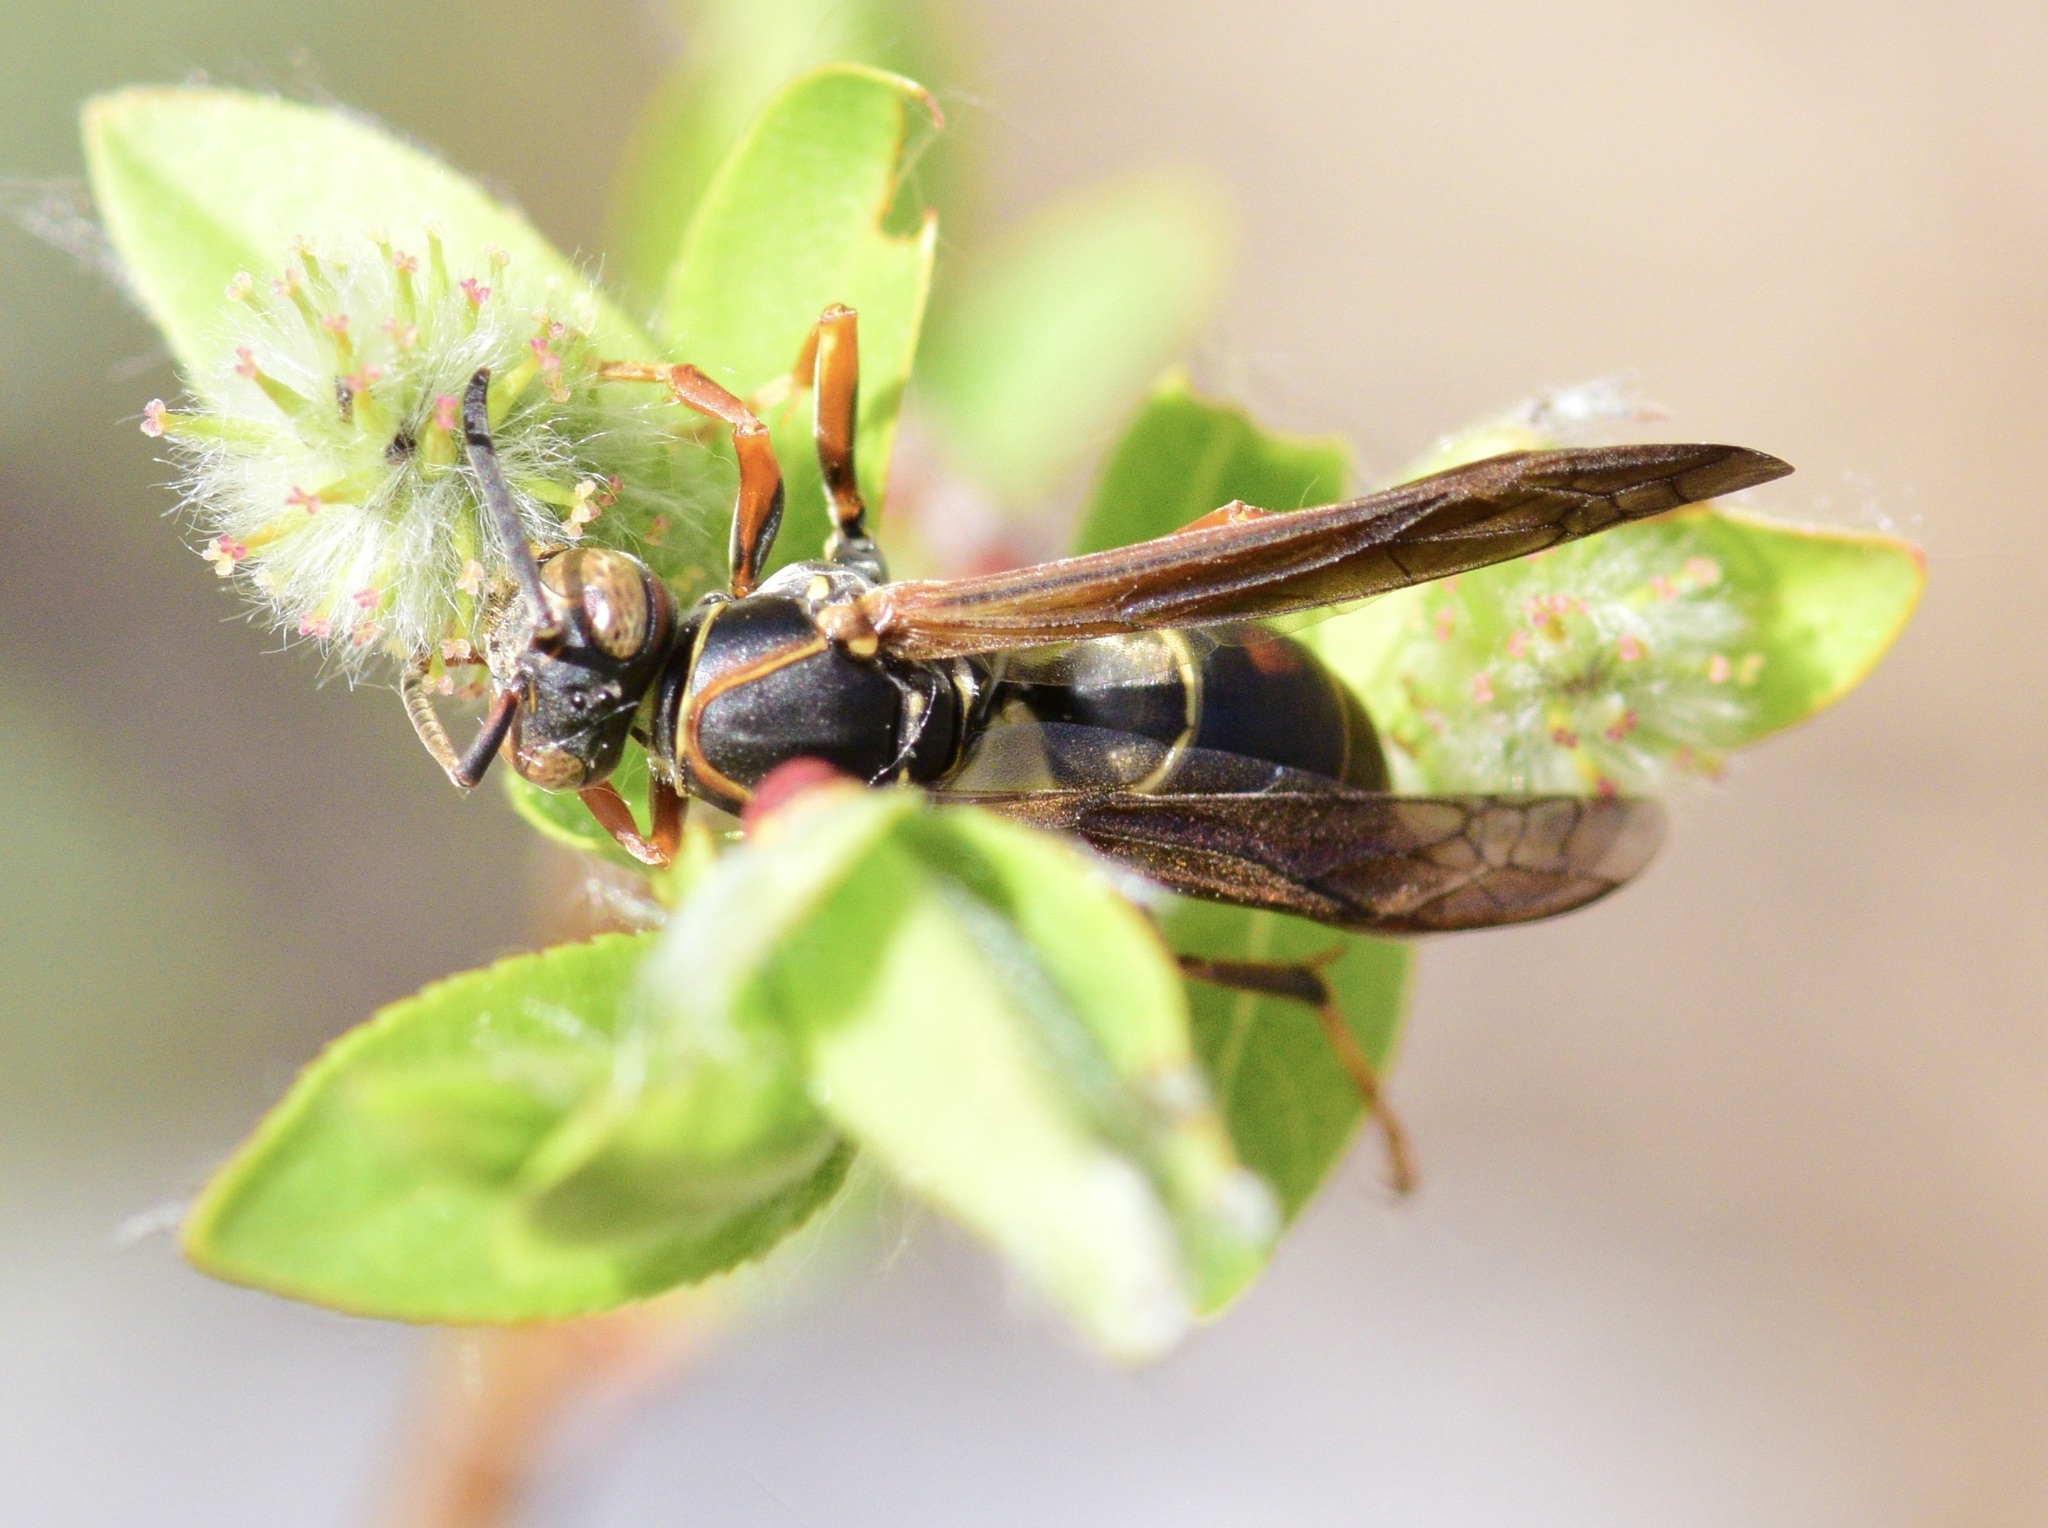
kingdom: Animalia
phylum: Arthropoda
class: Insecta
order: Hymenoptera
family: Eumenidae
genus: Polistes
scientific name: Polistes fuscatus
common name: Dark paper wasp
